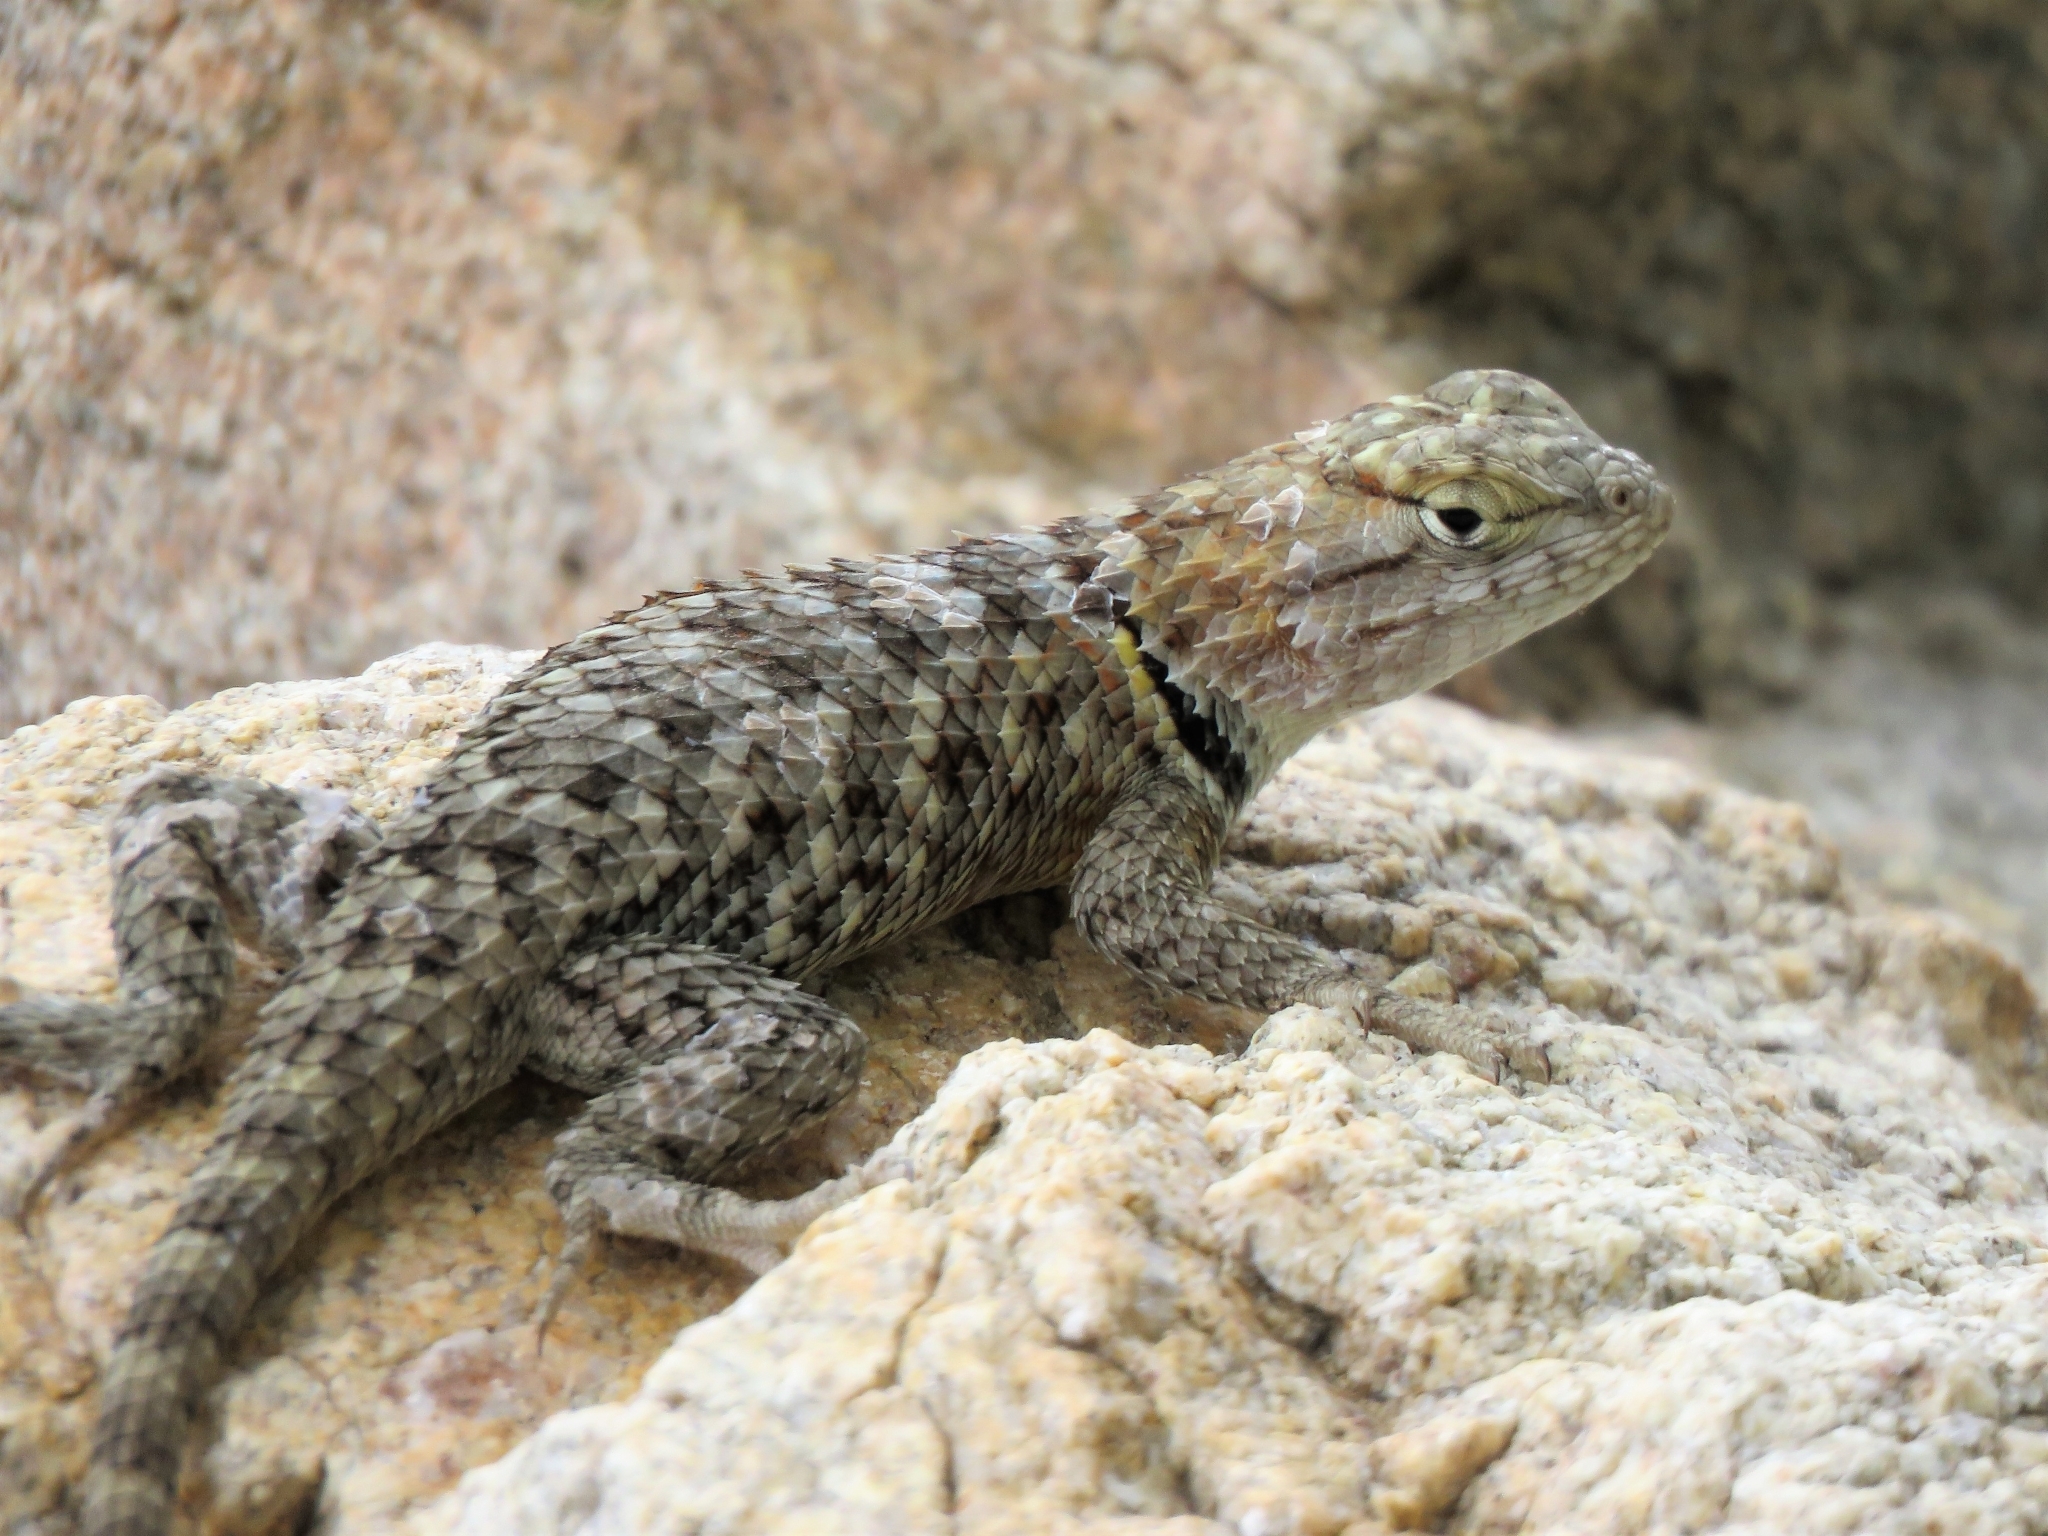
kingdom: Animalia
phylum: Chordata
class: Squamata
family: Phrynosomatidae
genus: Sceloporus
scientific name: Sceloporus magister
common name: Desert spiny lizard
